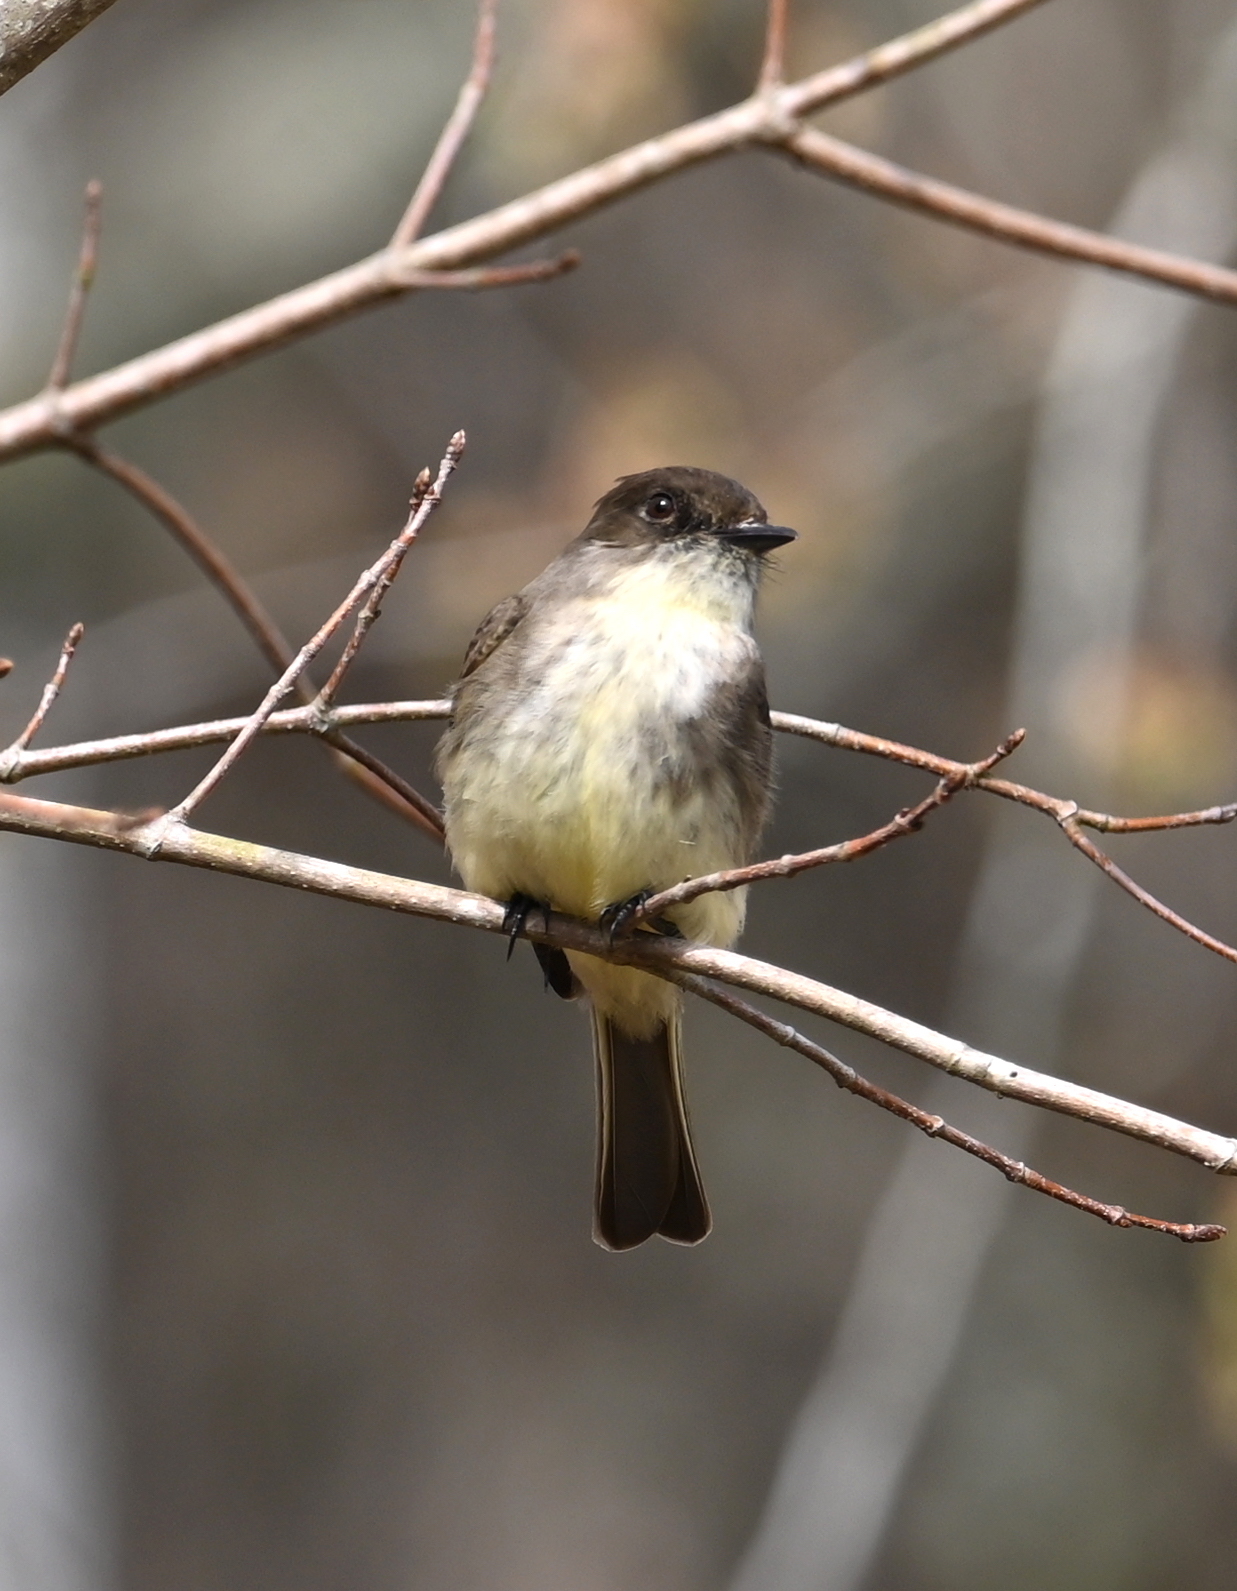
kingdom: Animalia
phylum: Chordata
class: Aves
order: Passeriformes
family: Tyrannidae
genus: Sayornis
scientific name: Sayornis phoebe
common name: Eastern phoebe
